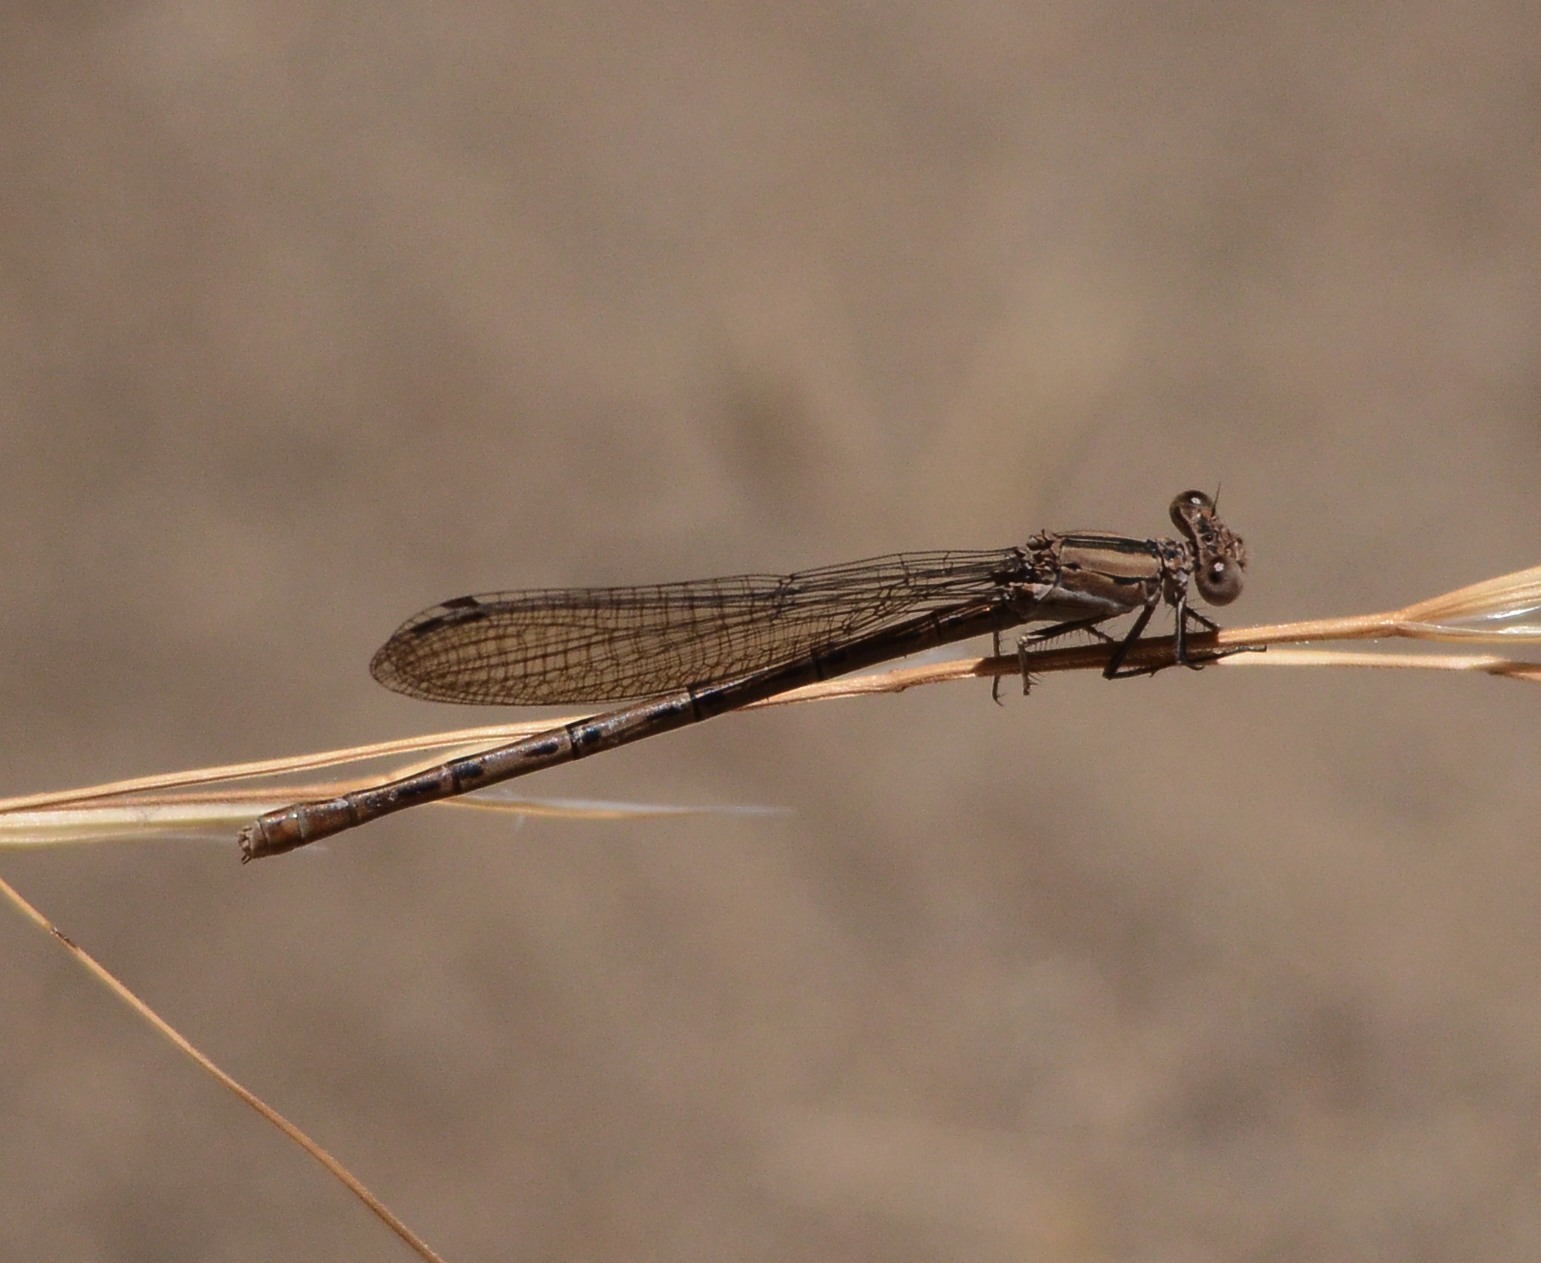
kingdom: Animalia
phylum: Arthropoda
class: Insecta
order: Odonata
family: Coenagrionidae
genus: Argia
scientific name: Argia vivida
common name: Vivid dancer
